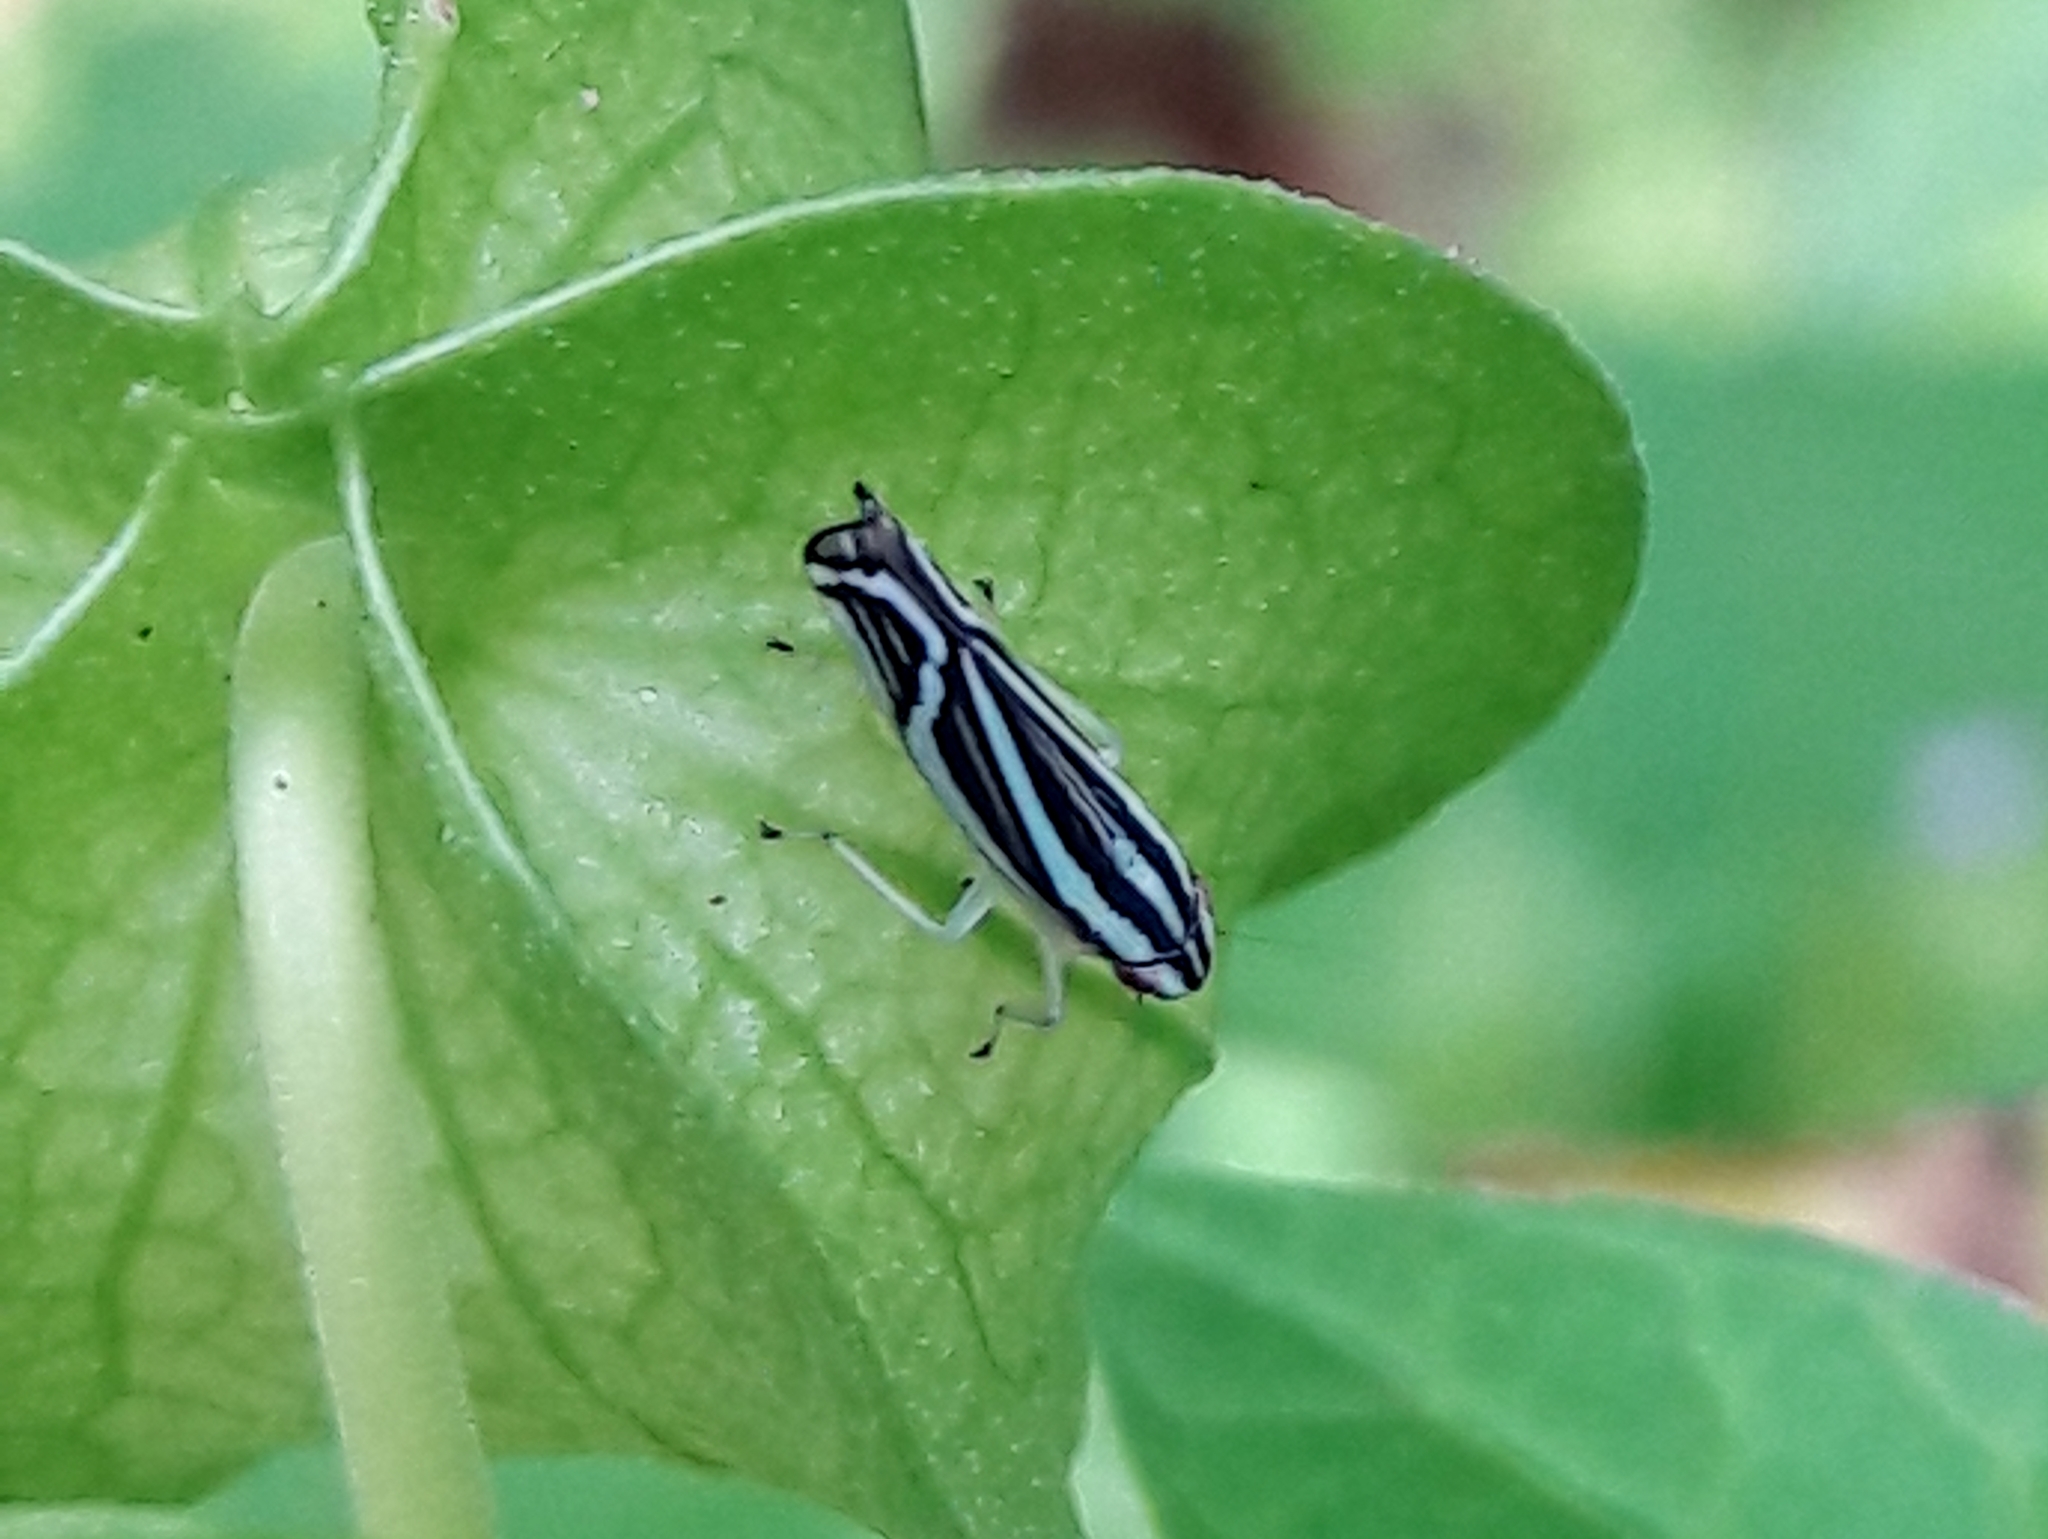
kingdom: Animalia
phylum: Arthropoda
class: Insecta
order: Hemiptera
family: Cicadellidae
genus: Sibovia
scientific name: Sibovia sagata
